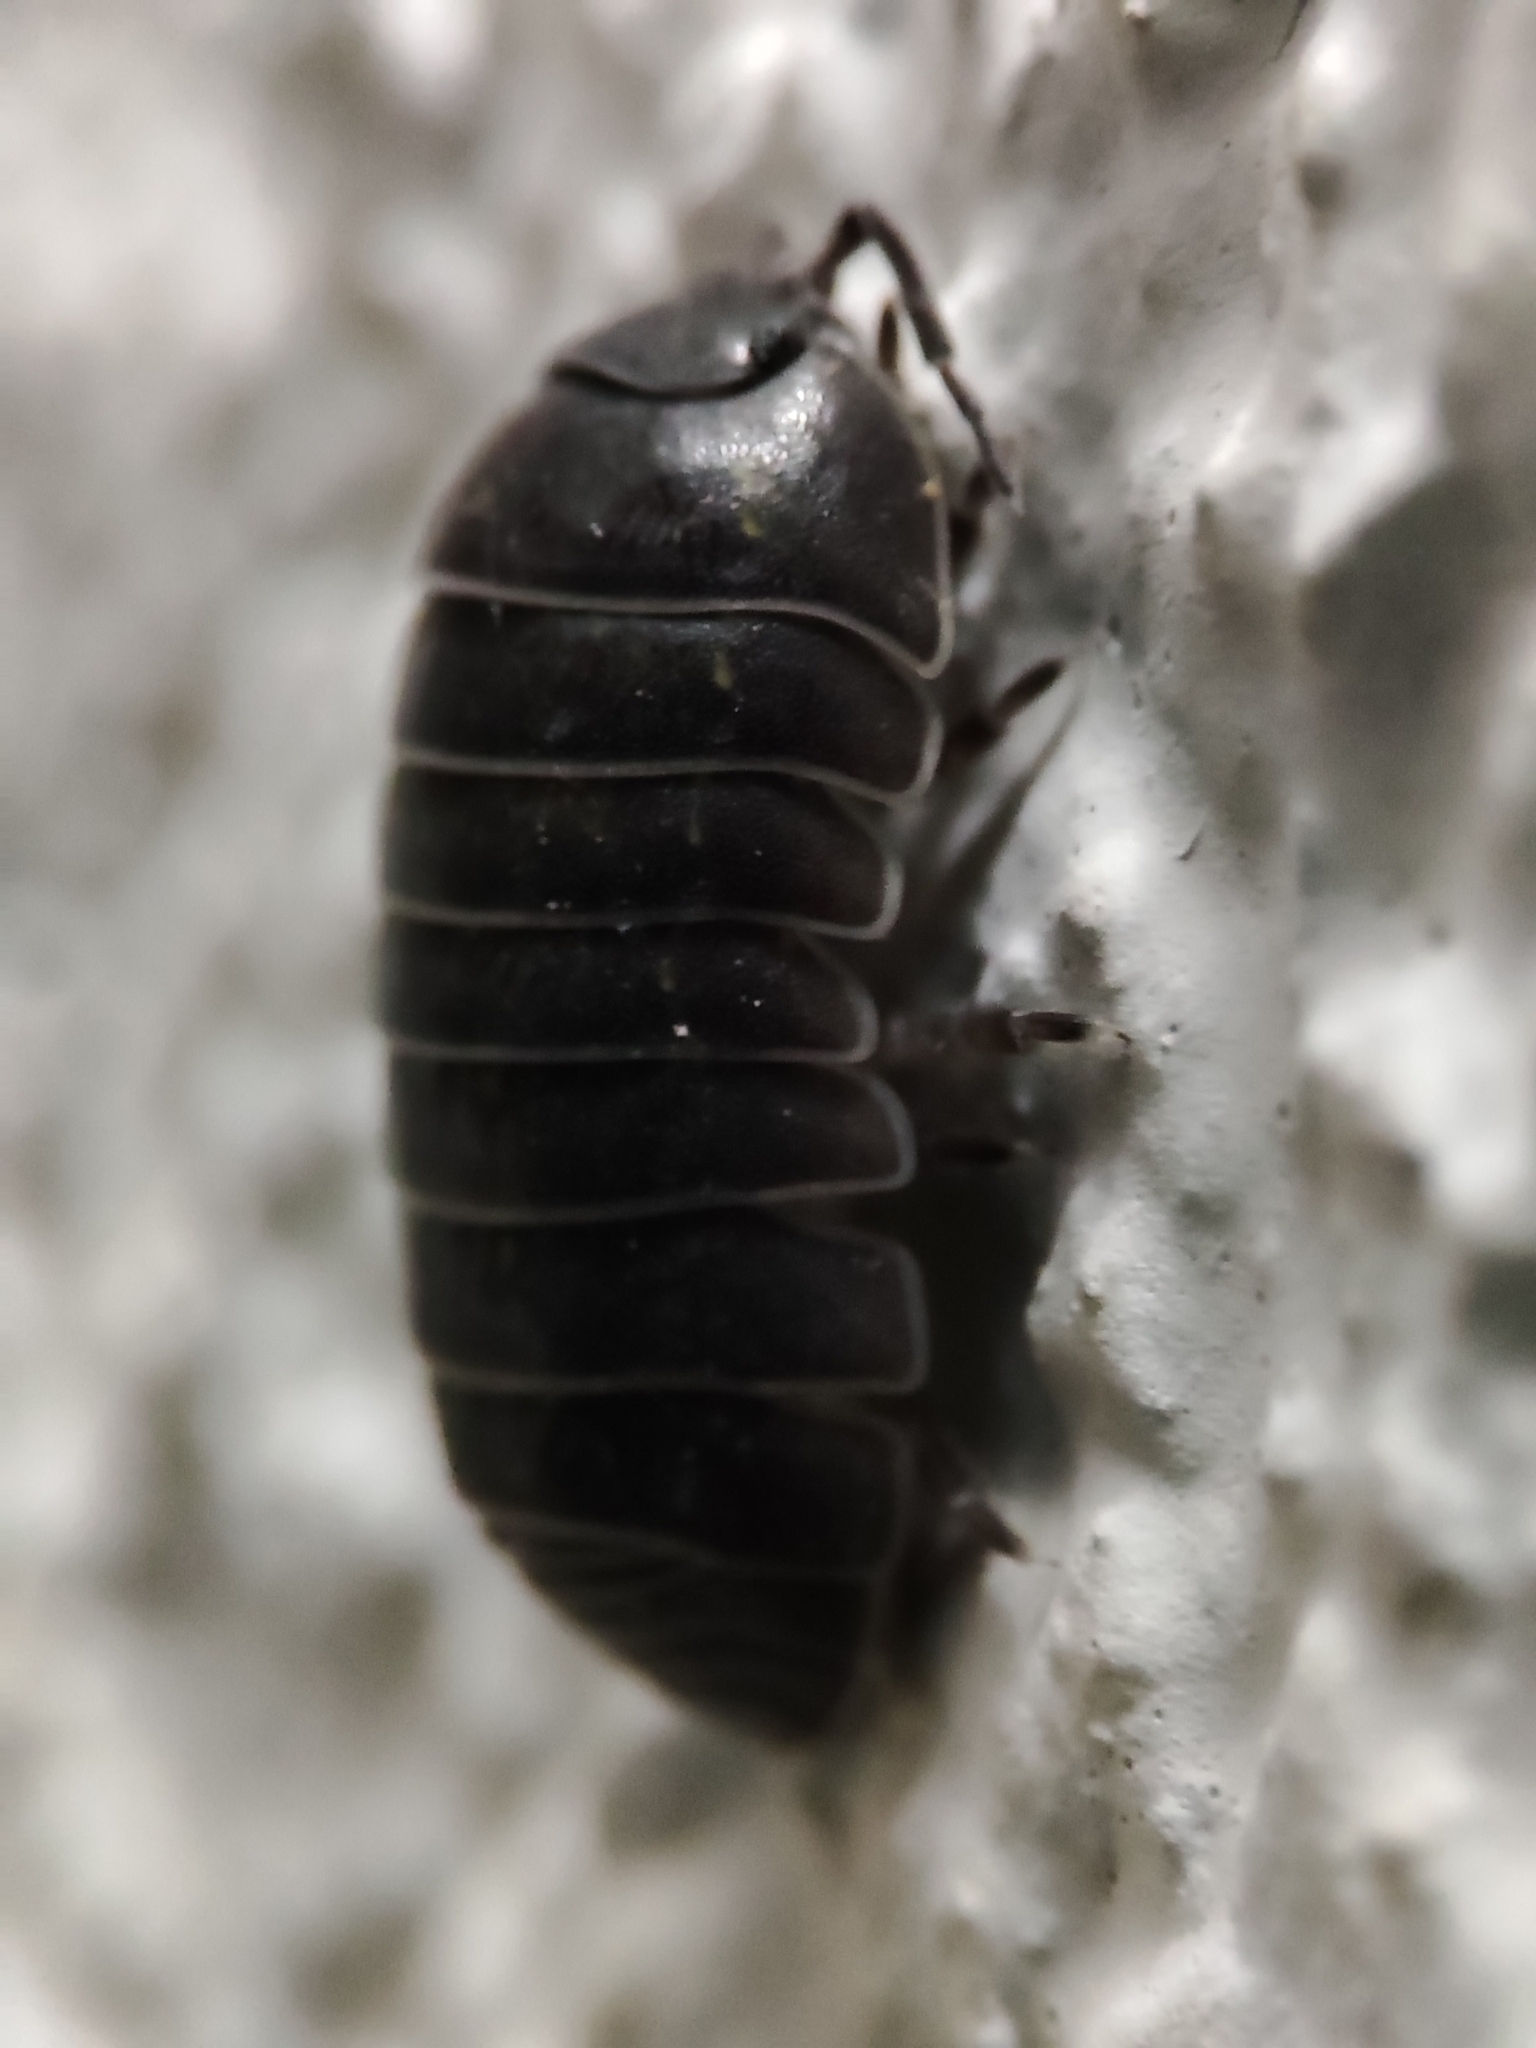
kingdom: Animalia
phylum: Arthropoda
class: Malacostraca
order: Isopoda
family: Armadillidiidae
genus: Armadillidium
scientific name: Armadillidium vulgare
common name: Common pill woodlouse
